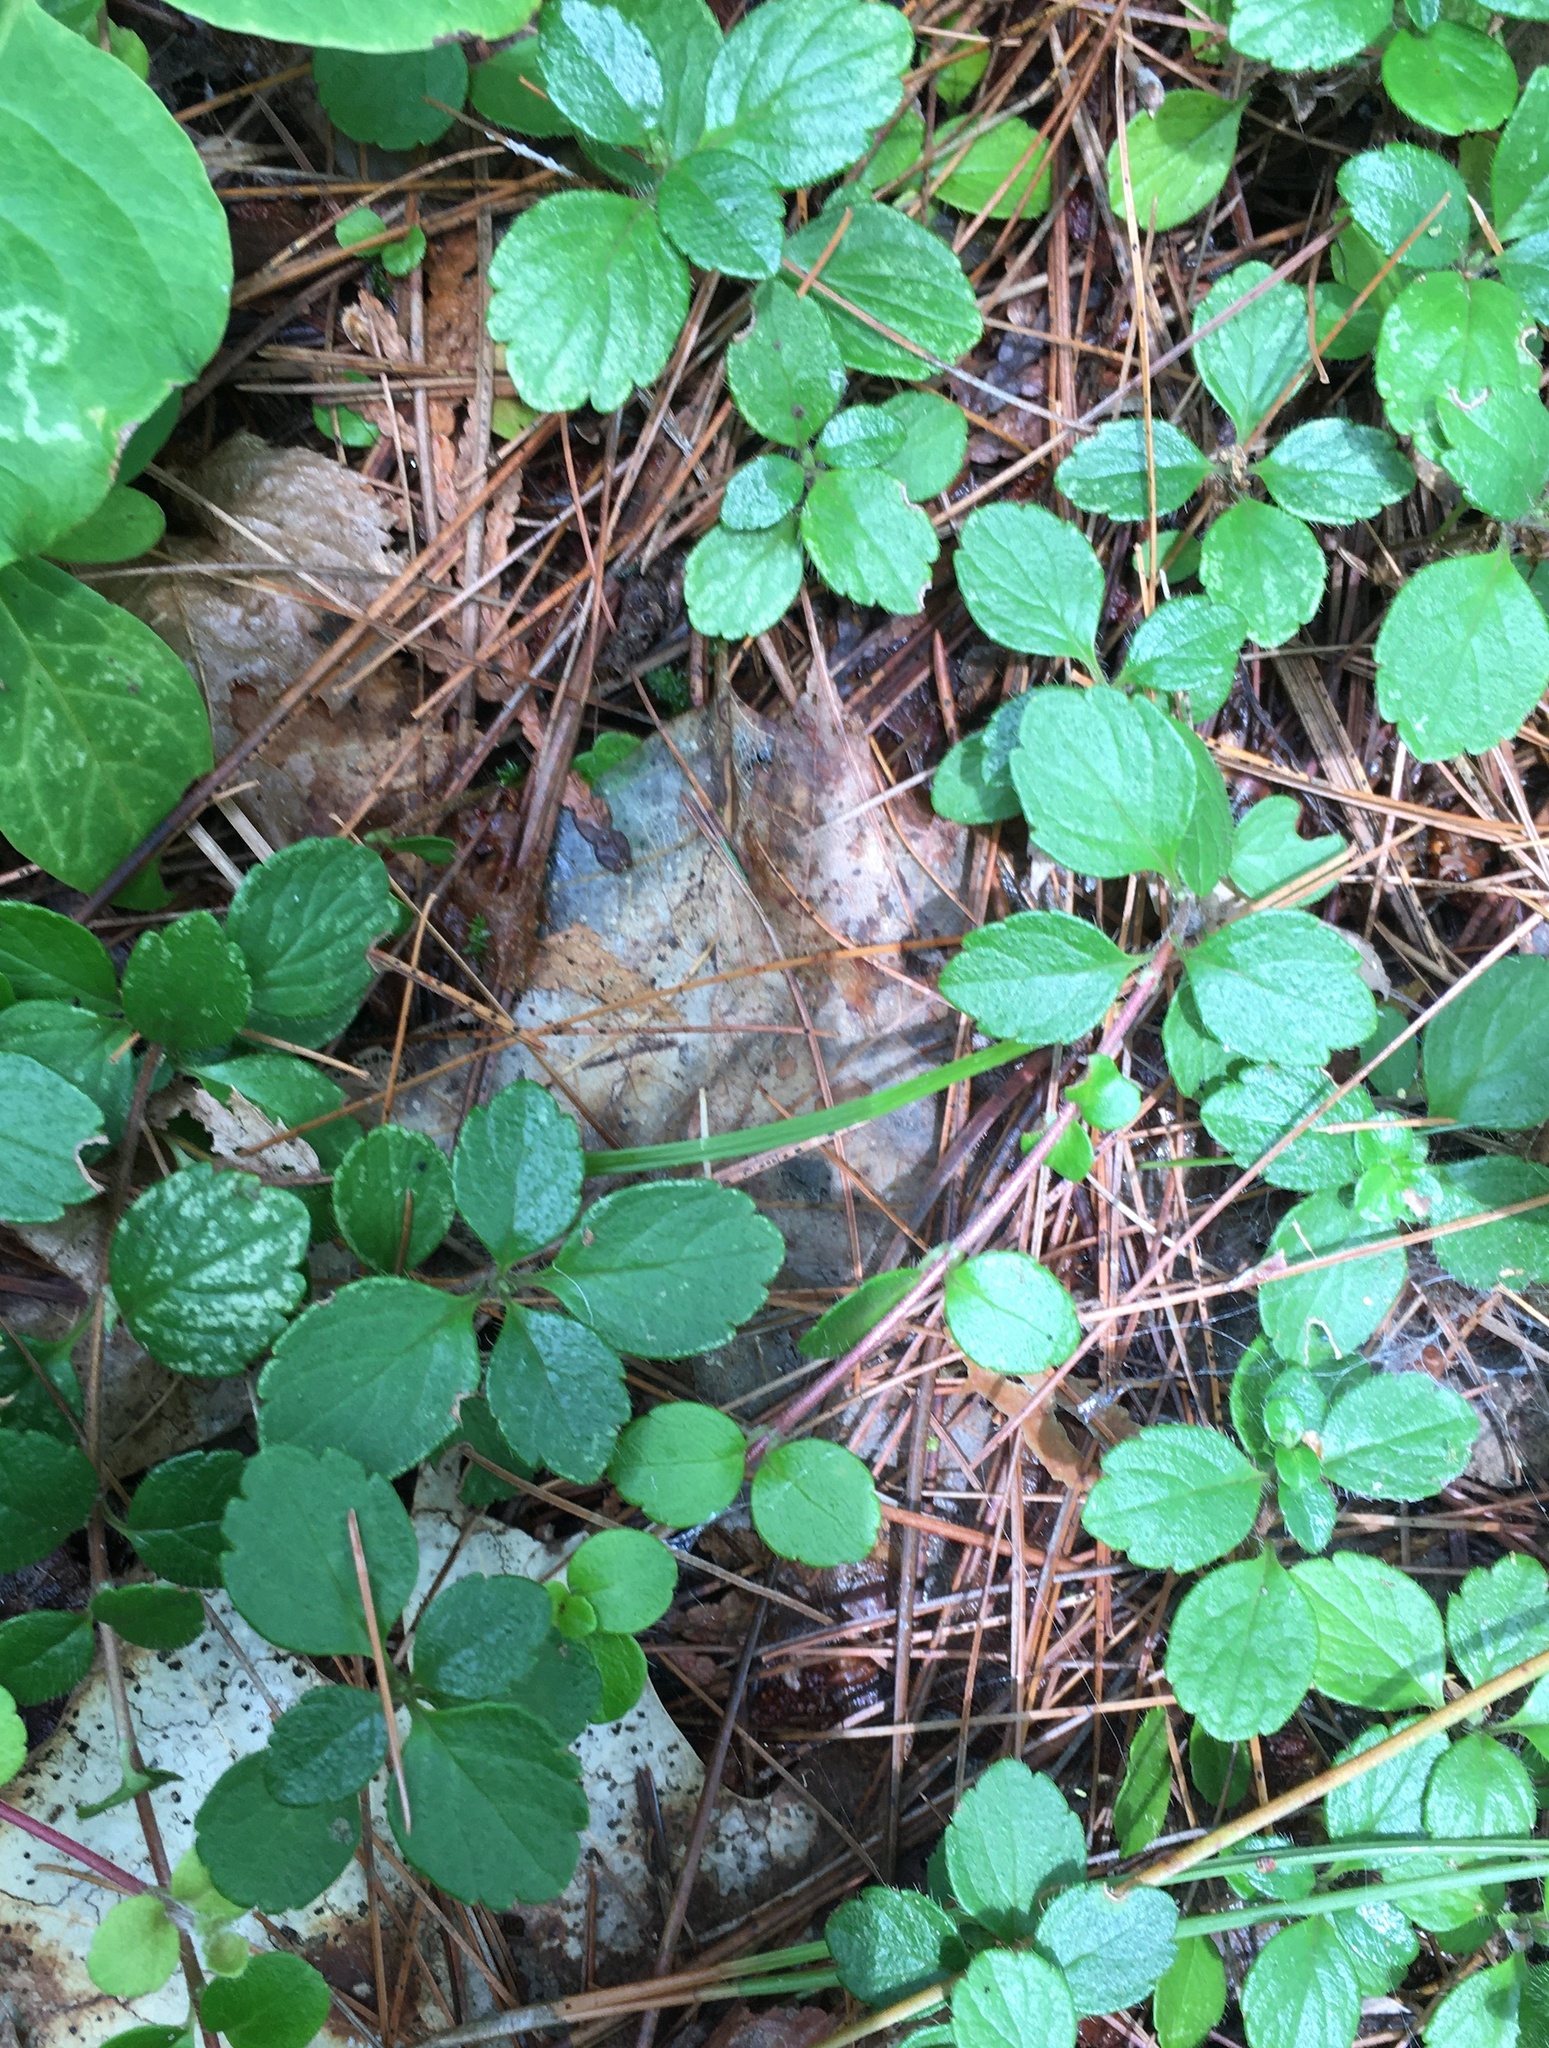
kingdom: Plantae
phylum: Tracheophyta
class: Magnoliopsida
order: Dipsacales
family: Caprifoliaceae
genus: Linnaea
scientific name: Linnaea borealis
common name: Twinflower
